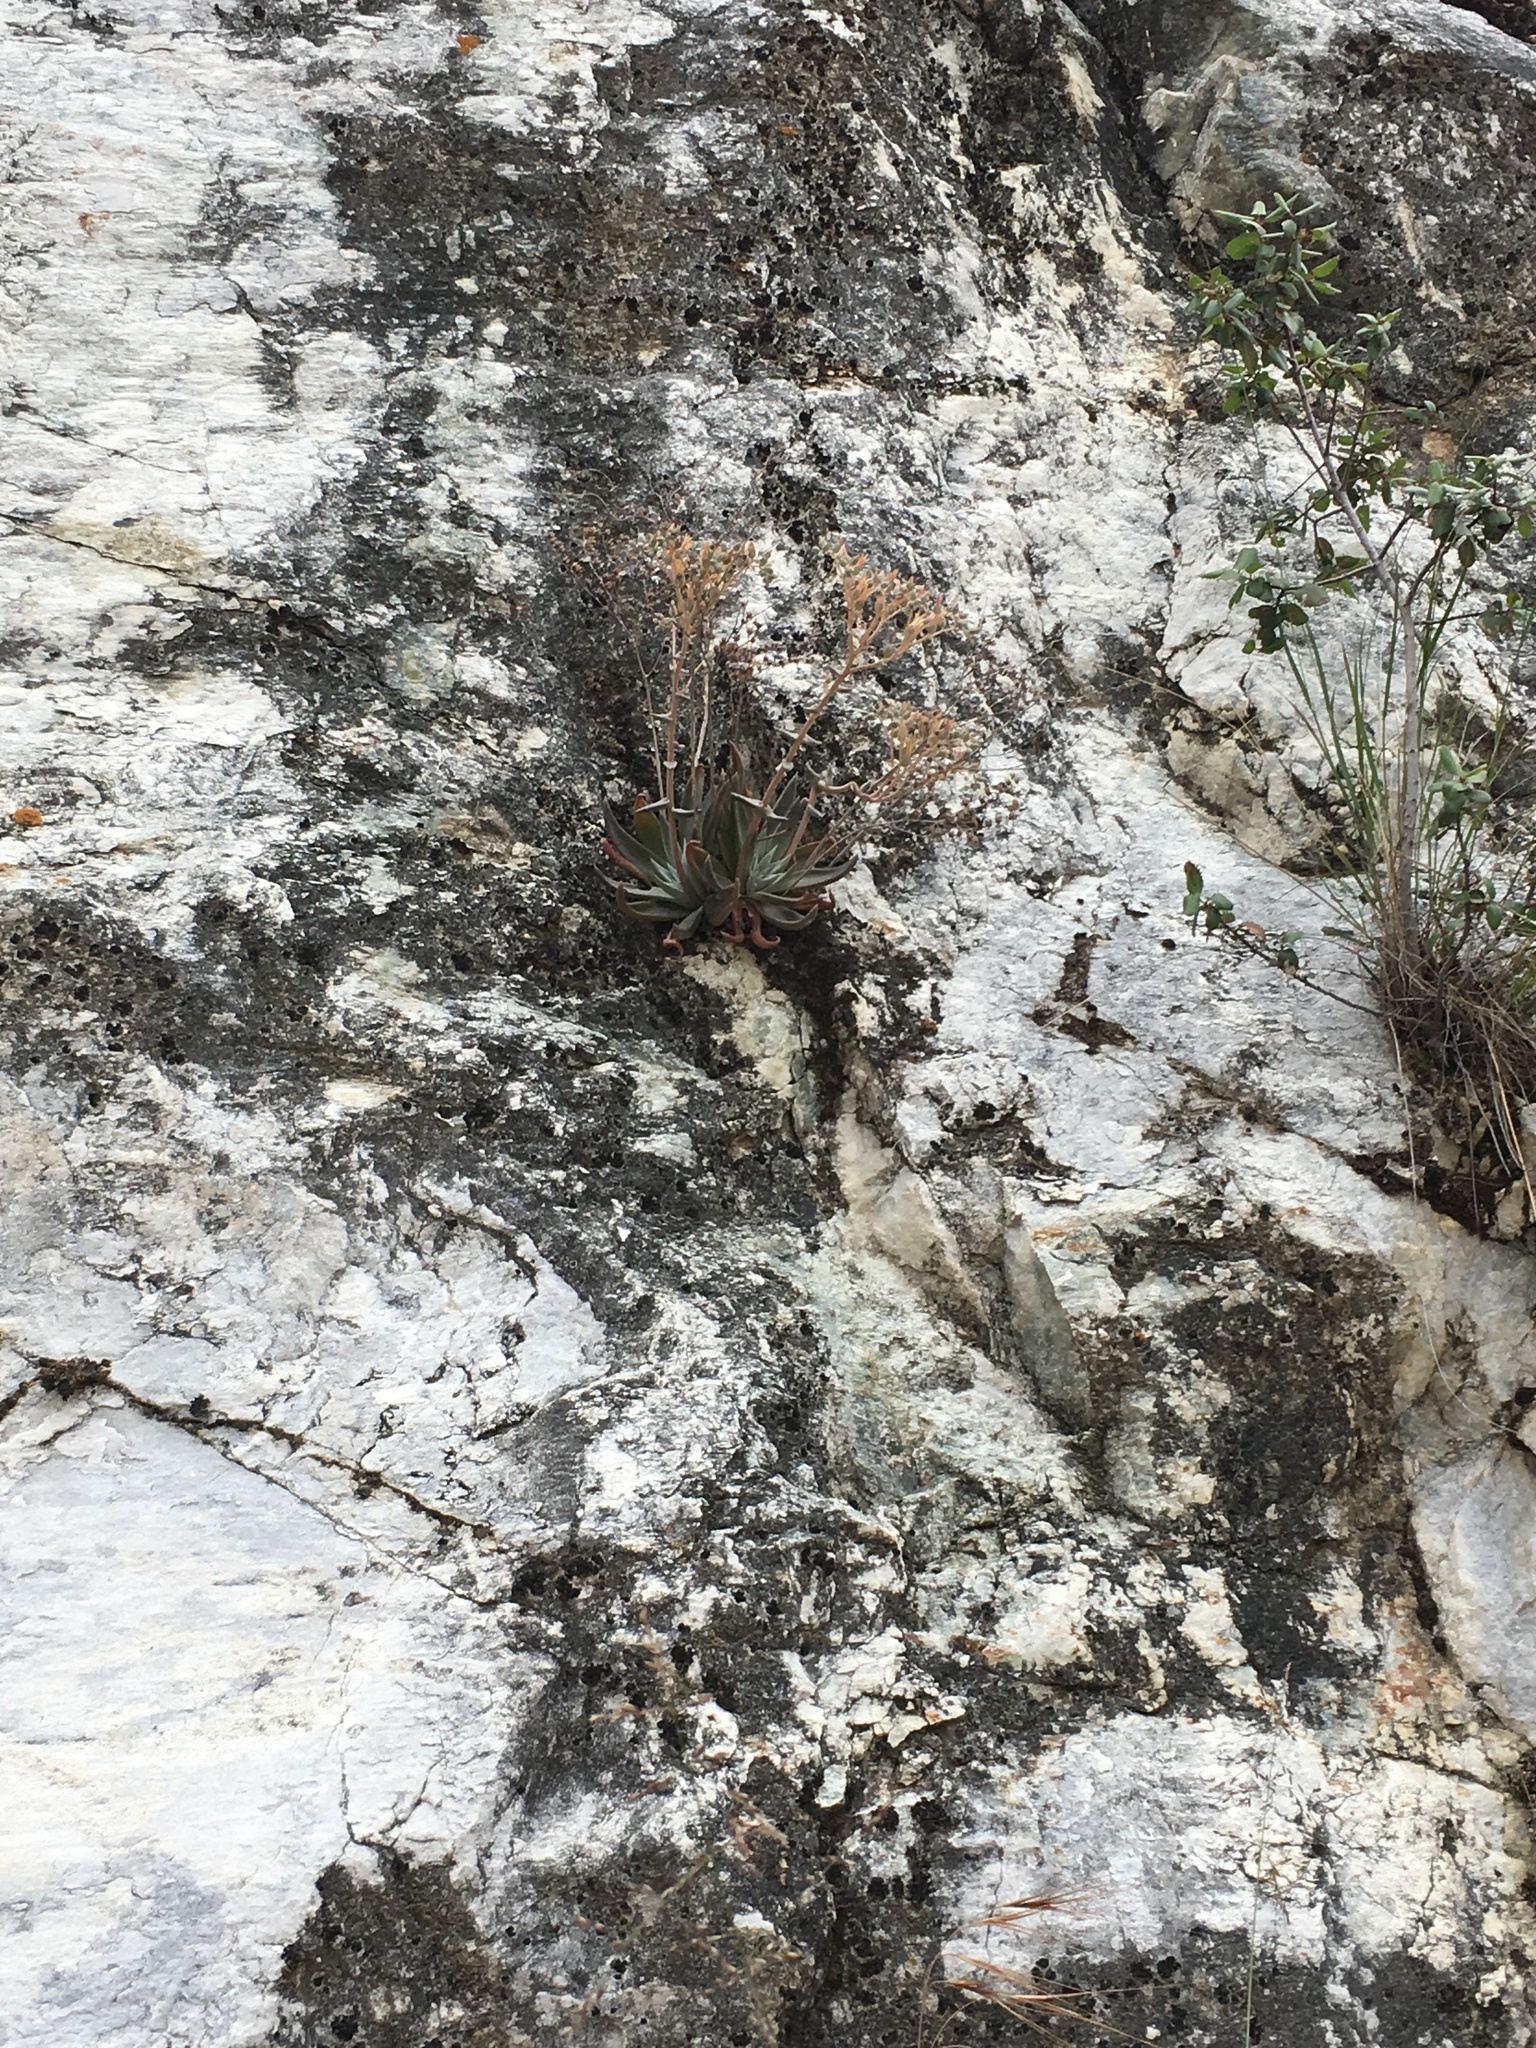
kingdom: Plantae
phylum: Tracheophyta
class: Magnoliopsida
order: Saxifragales
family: Crassulaceae
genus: Dudleya
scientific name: Dudleya abramsii
